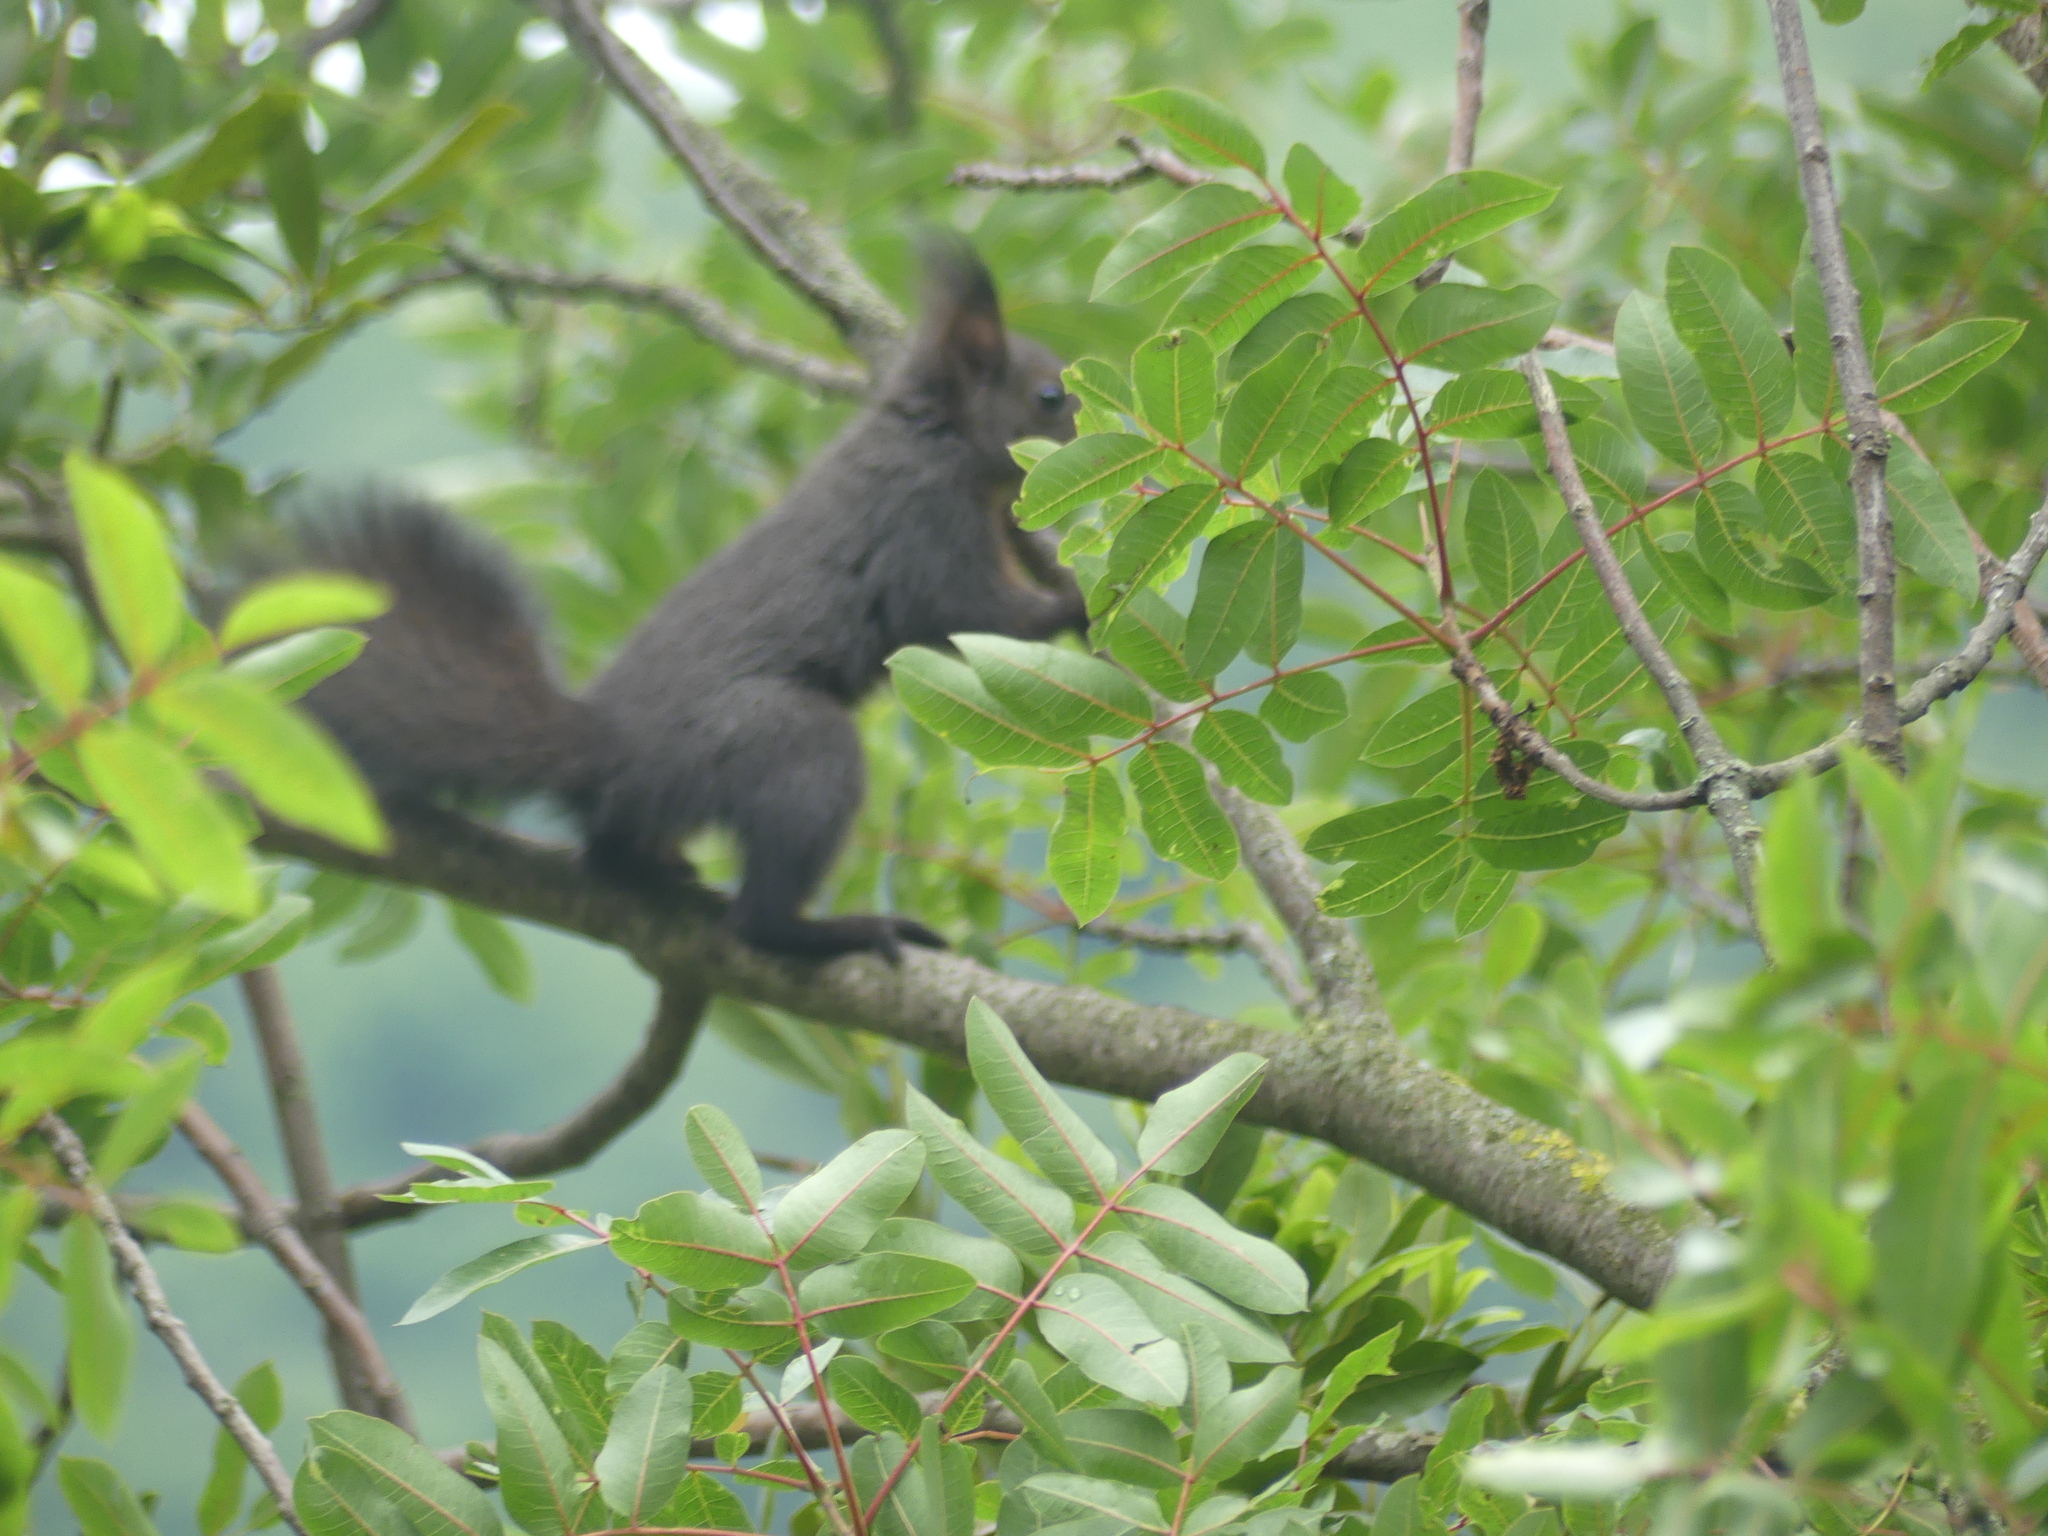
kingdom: Animalia
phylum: Chordata
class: Mammalia
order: Rodentia
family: Sciuridae
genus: Sciurus
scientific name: Sciurus vulgaris
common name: Eurasian red squirrel
